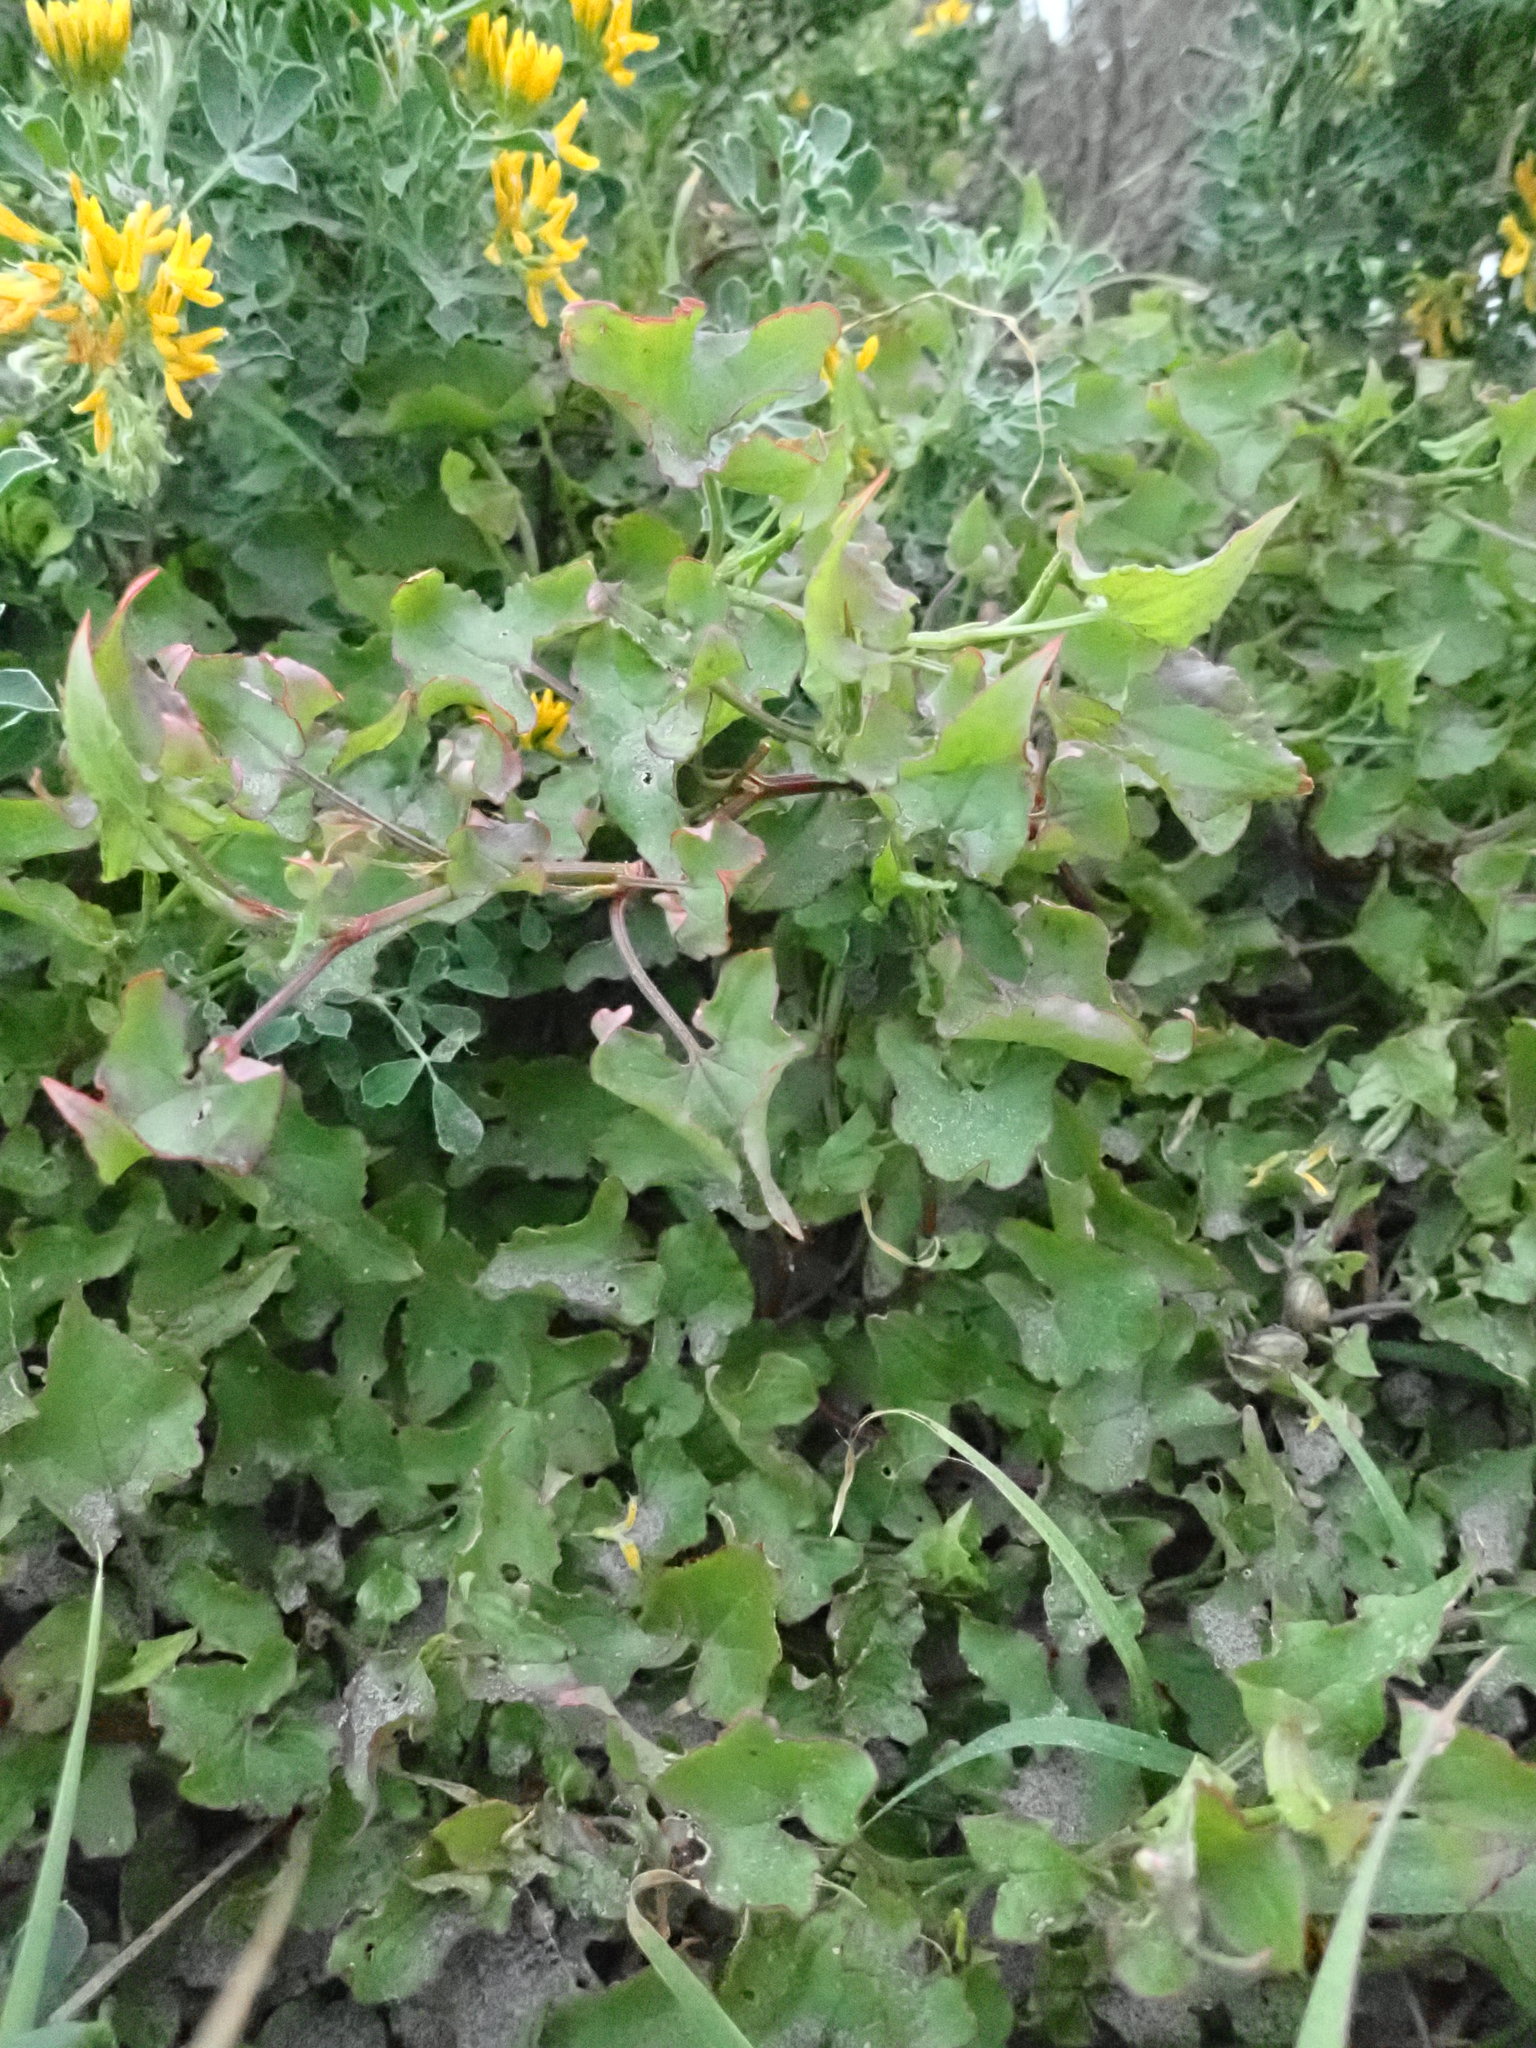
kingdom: Plantae
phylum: Tracheophyta
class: Magnoliopsida
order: Caryophyllales
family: Polygonaceae
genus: Rumex
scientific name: Rumex sagittatus
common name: Climbing dock
